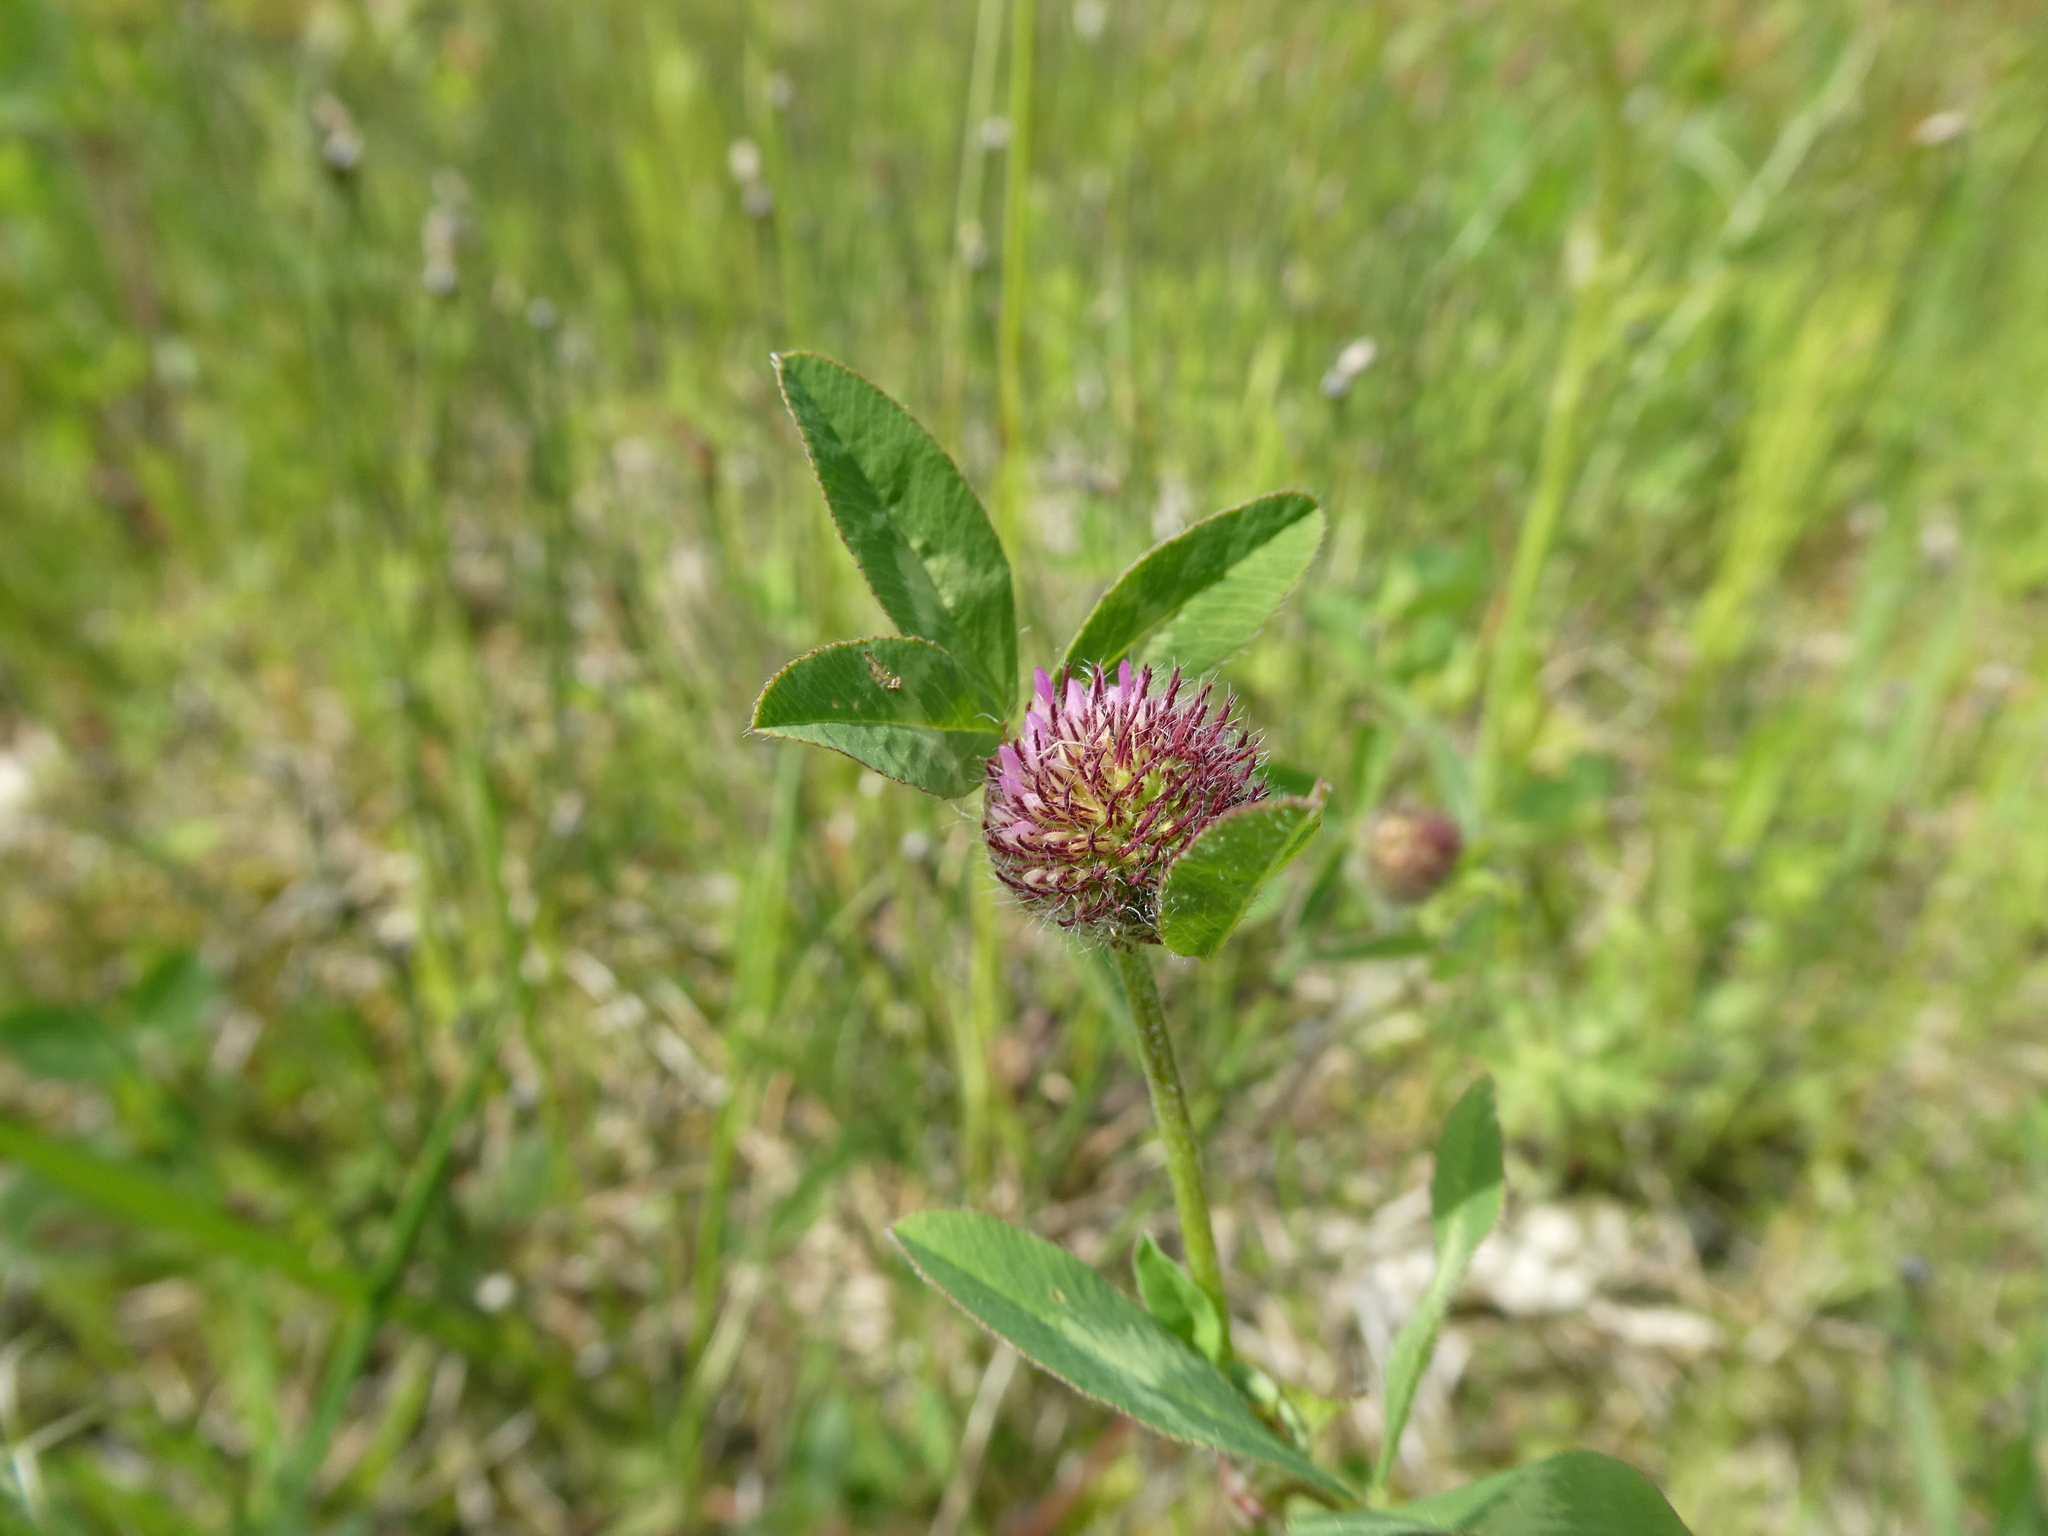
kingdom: Plantae
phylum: Tracheophyta
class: Magnoliopsida
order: Fabales
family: Fabaceae
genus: Trifolium
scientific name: Trifolium pratense
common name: Red clover
